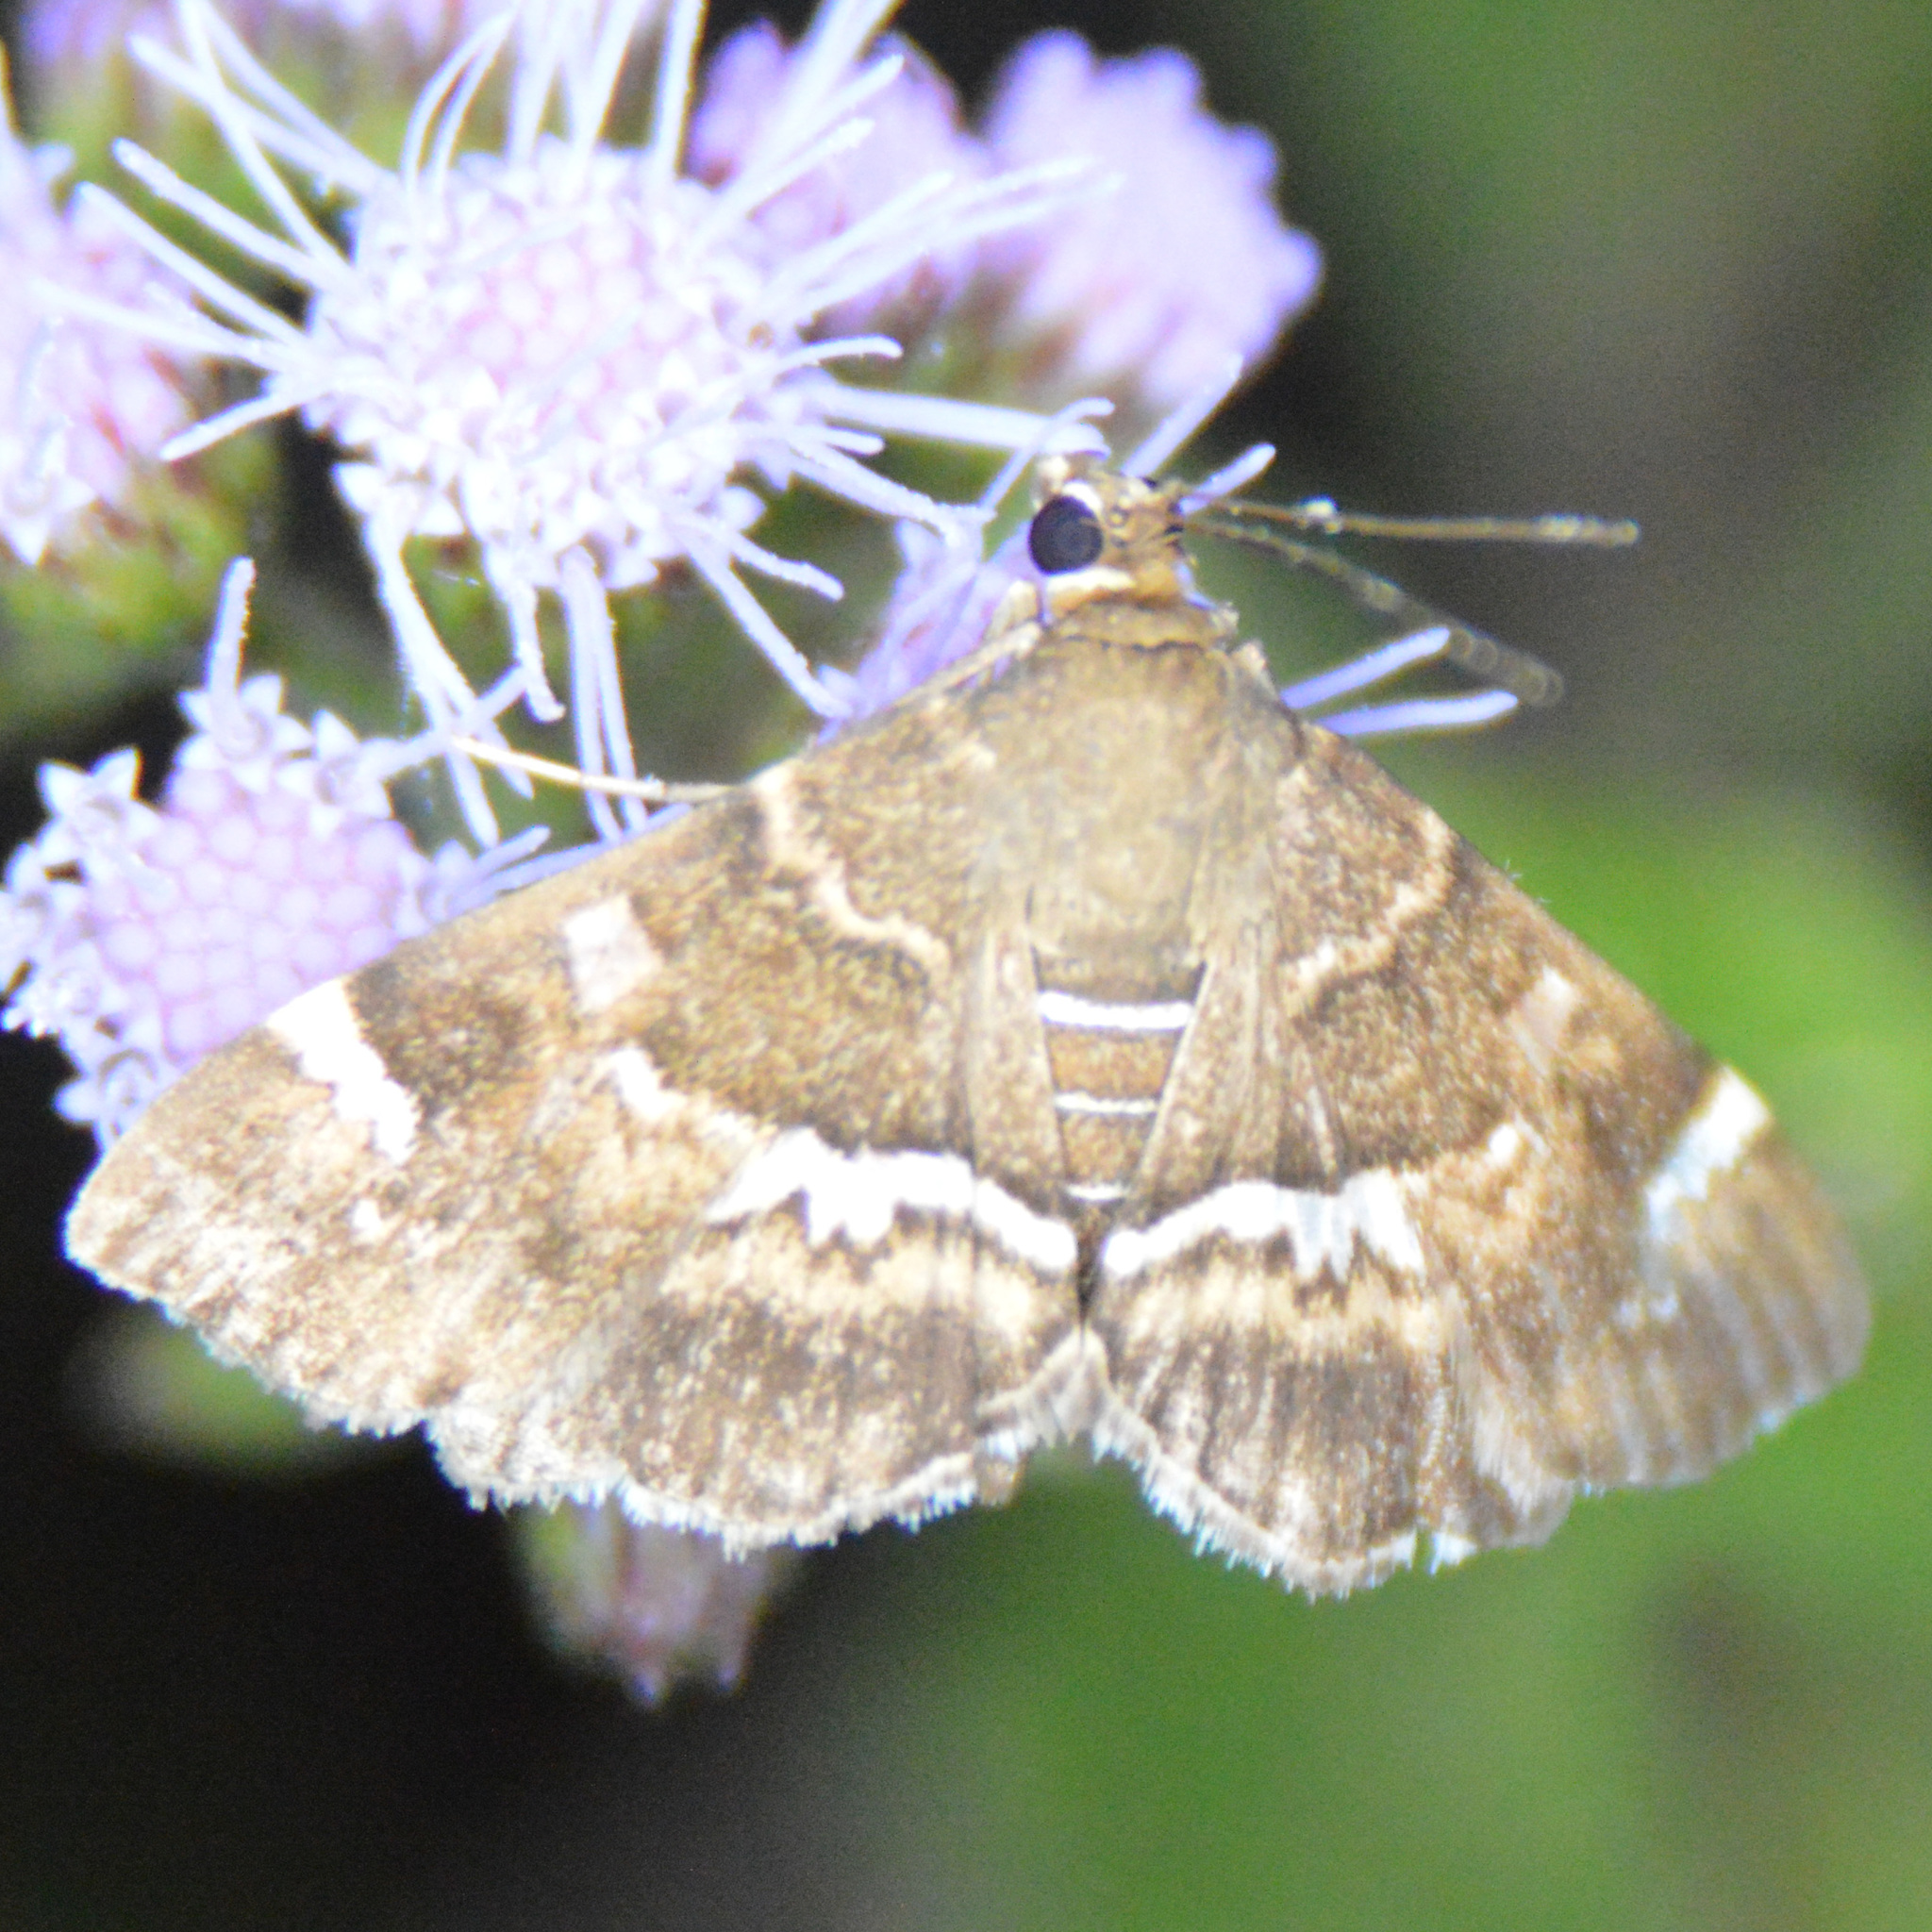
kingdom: Animalia
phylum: Arthropoda
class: Insecta
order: Lepidoptera
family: Crambidae
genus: Hymenia
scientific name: Hymenia perspectalis
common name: Spotted beet webworm
